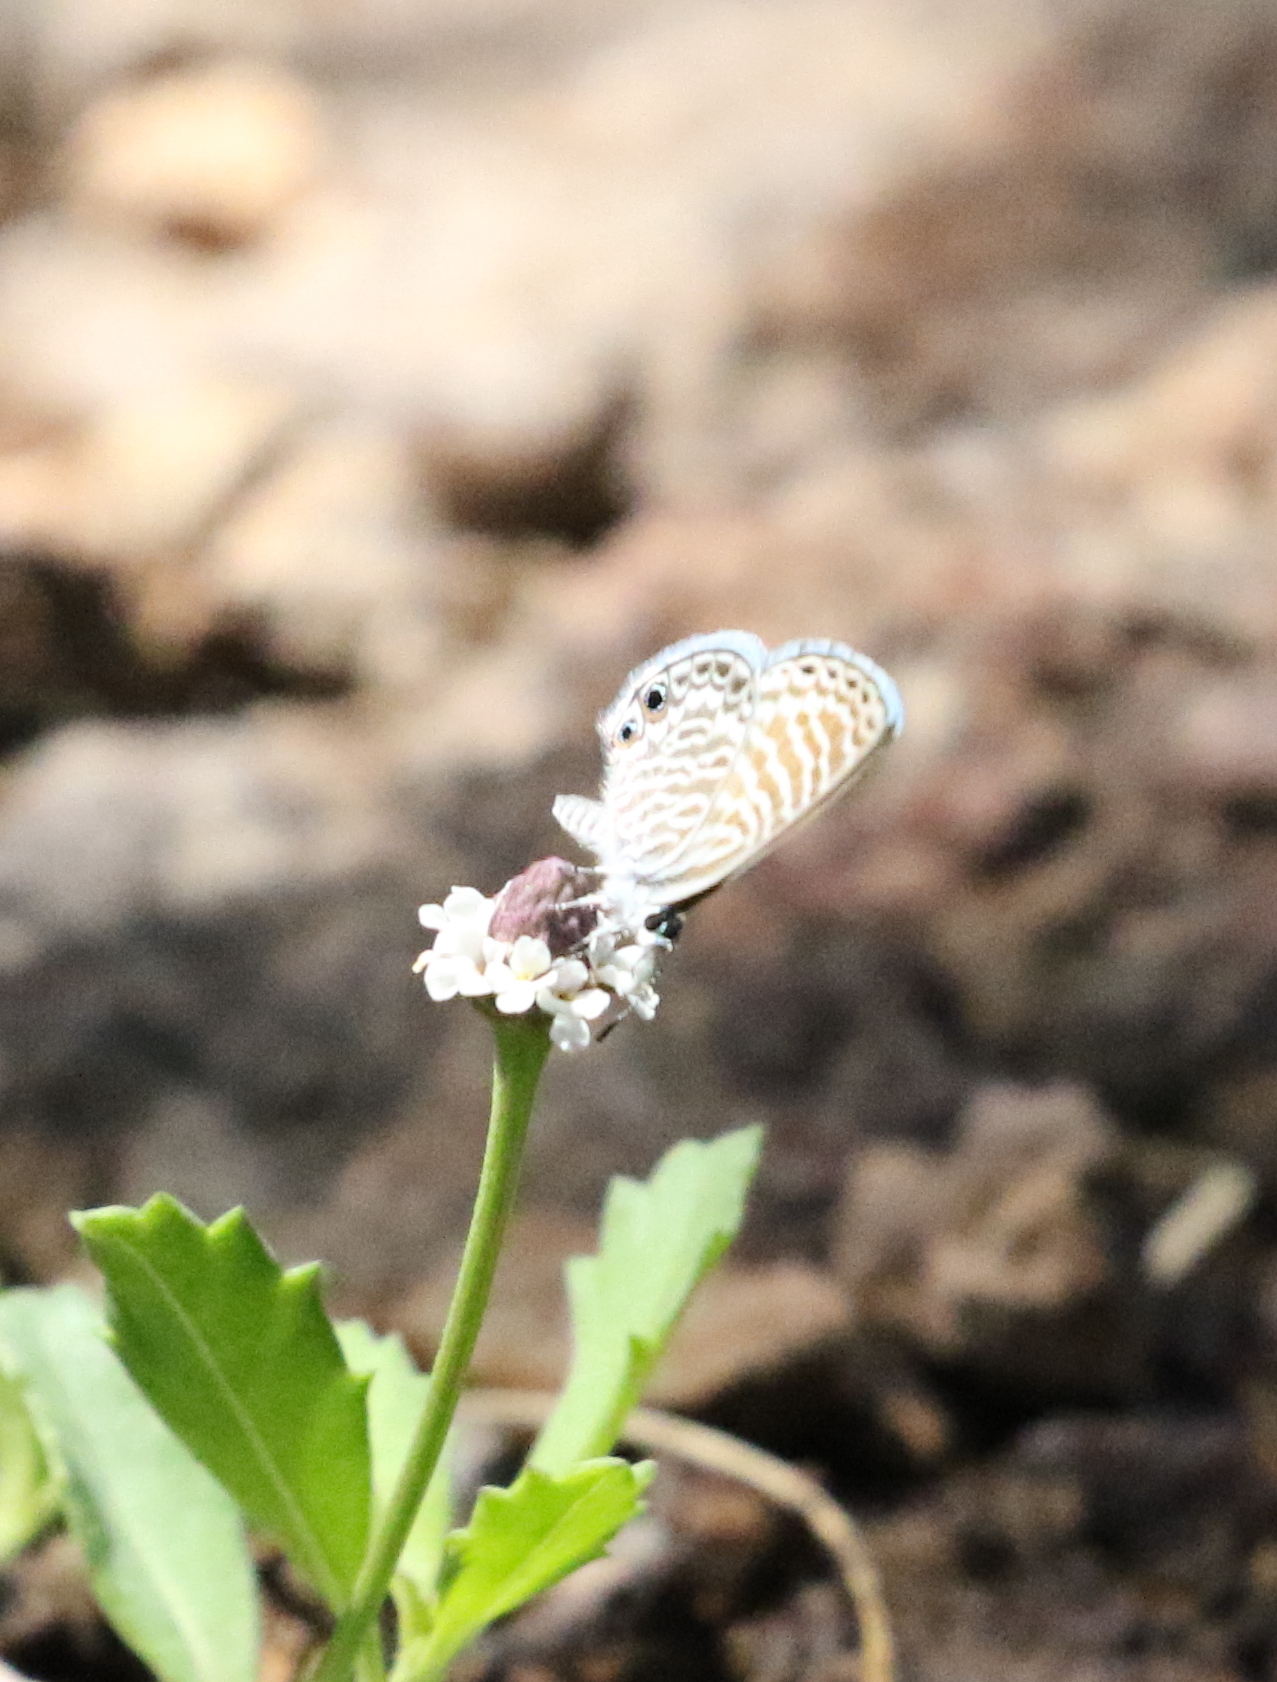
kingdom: Animalia
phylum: Arthropoda
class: Insecta
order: Lepidoptera
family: Lycaenidae
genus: Leptotes
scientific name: Leptotes marina
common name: Marine blue
